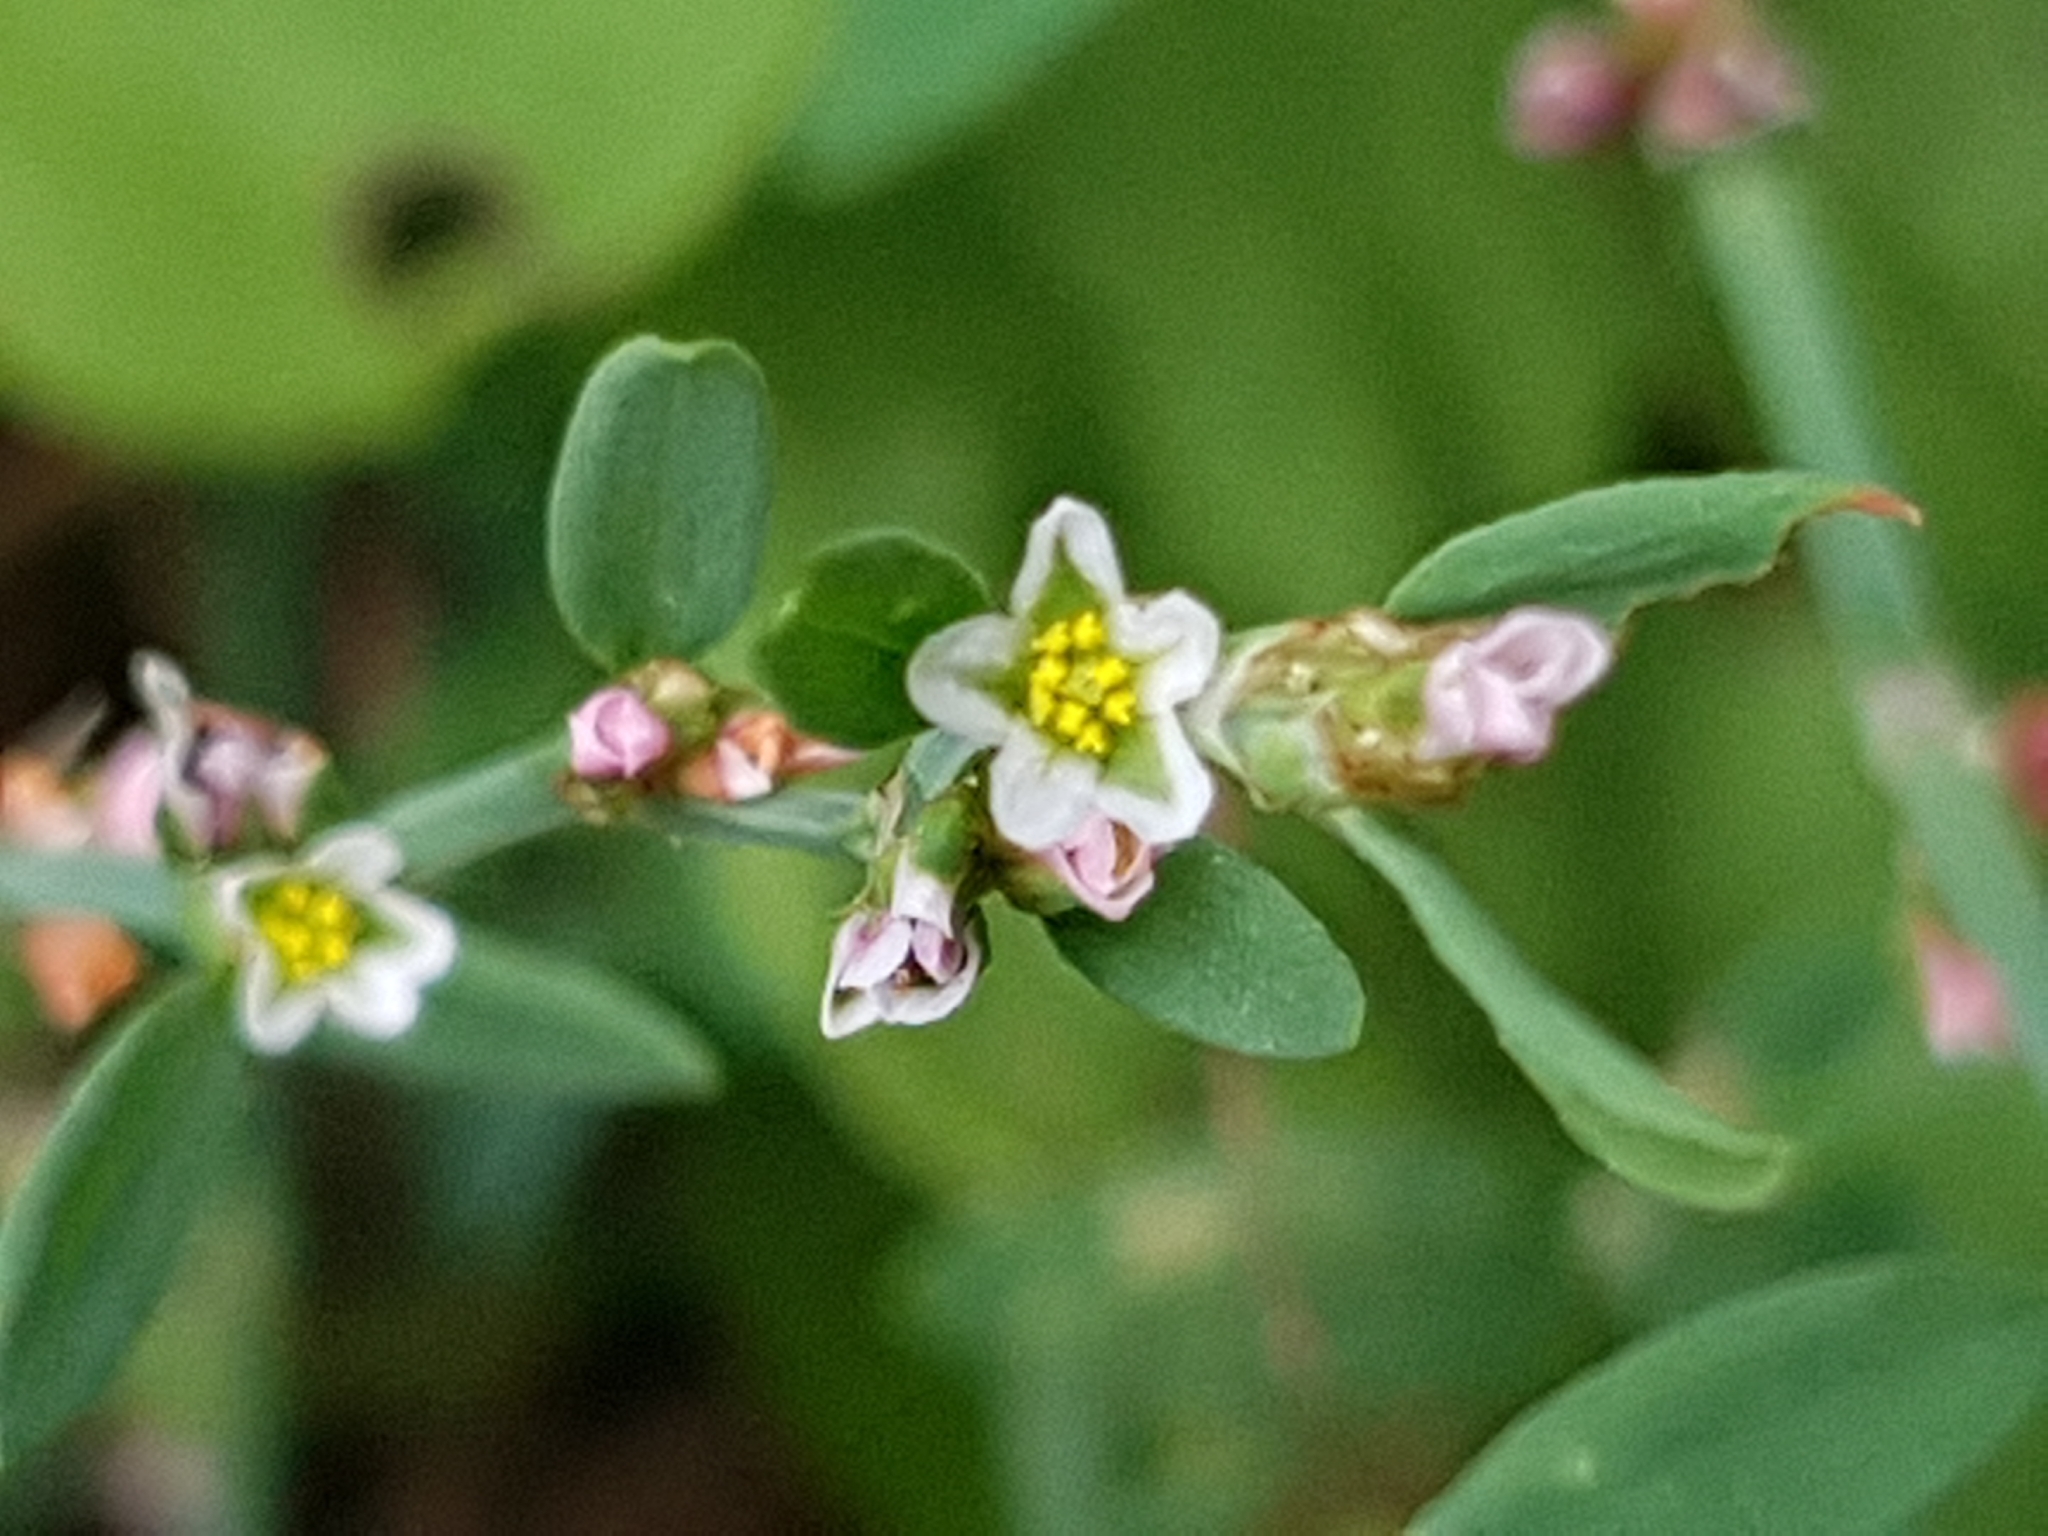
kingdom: Plantae
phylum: Tracheophyta
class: Magnoliopsida
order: Caryophyllales
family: Polygonaceae
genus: Polygonum
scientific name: Polygonum aviculare
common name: Prostrate knotweed
